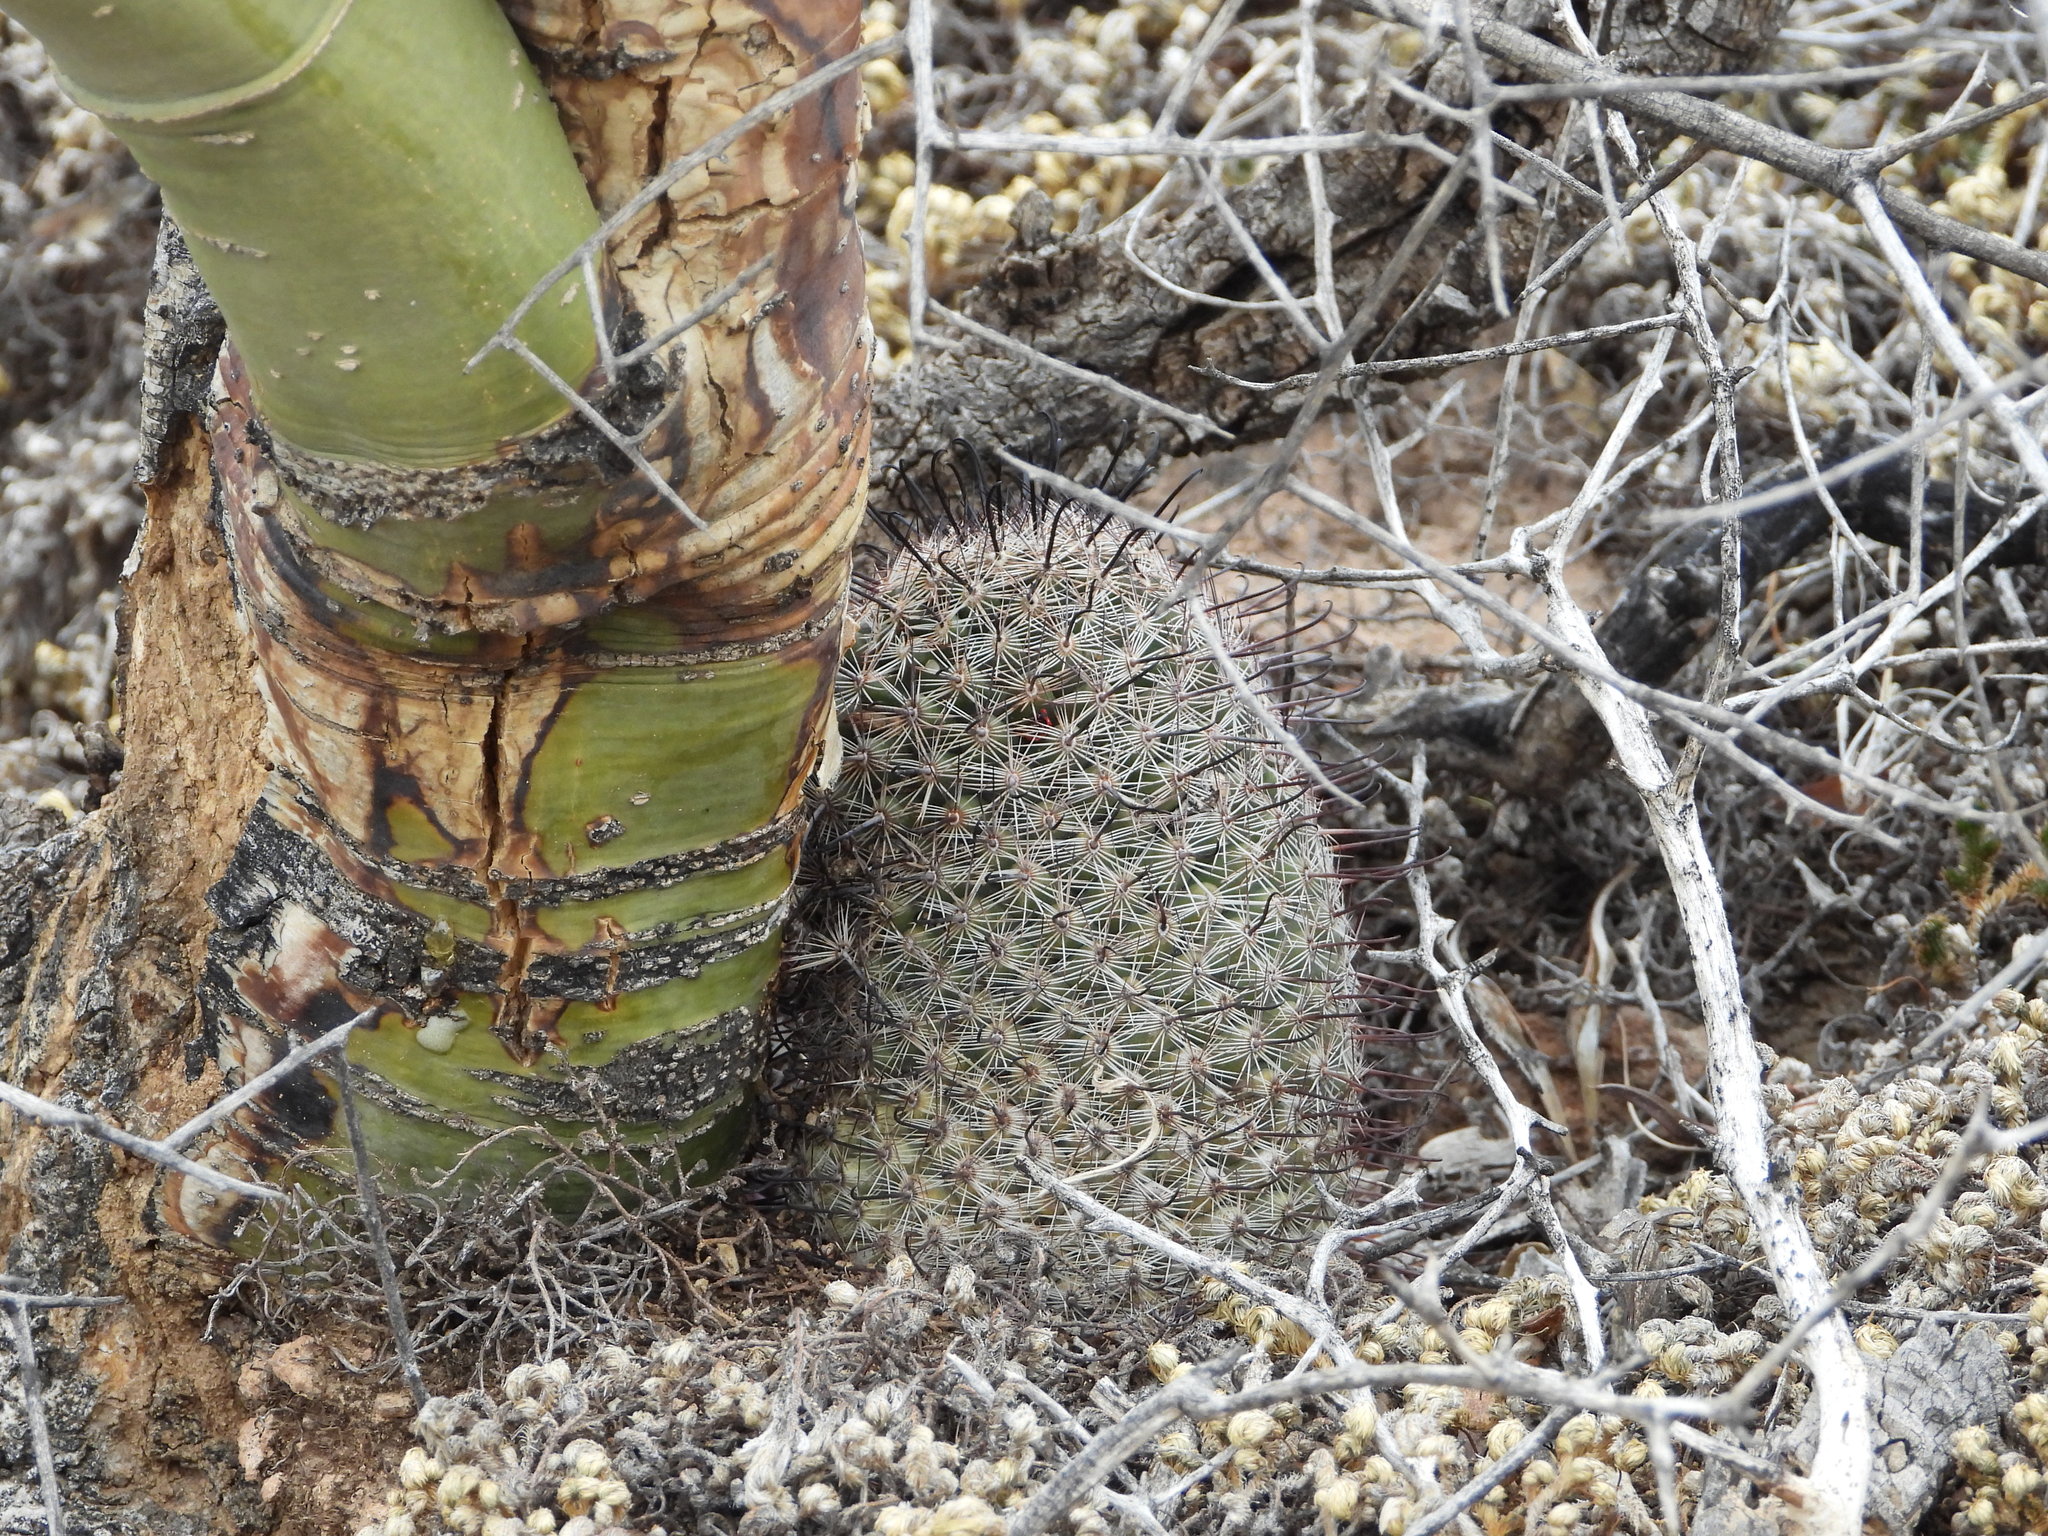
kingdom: Plantae
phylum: Tracheophyta
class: Magnoliopsida
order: Caryophyllales
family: Cactaceae
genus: Cochemiea
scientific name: Cochemiea grahamii
